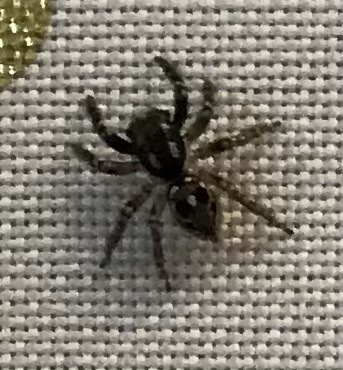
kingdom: Animalia
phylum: Arthropoda
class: Arachnida
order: Araneae
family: Salticidae
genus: Anasaitis
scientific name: Anasaitis canosa
